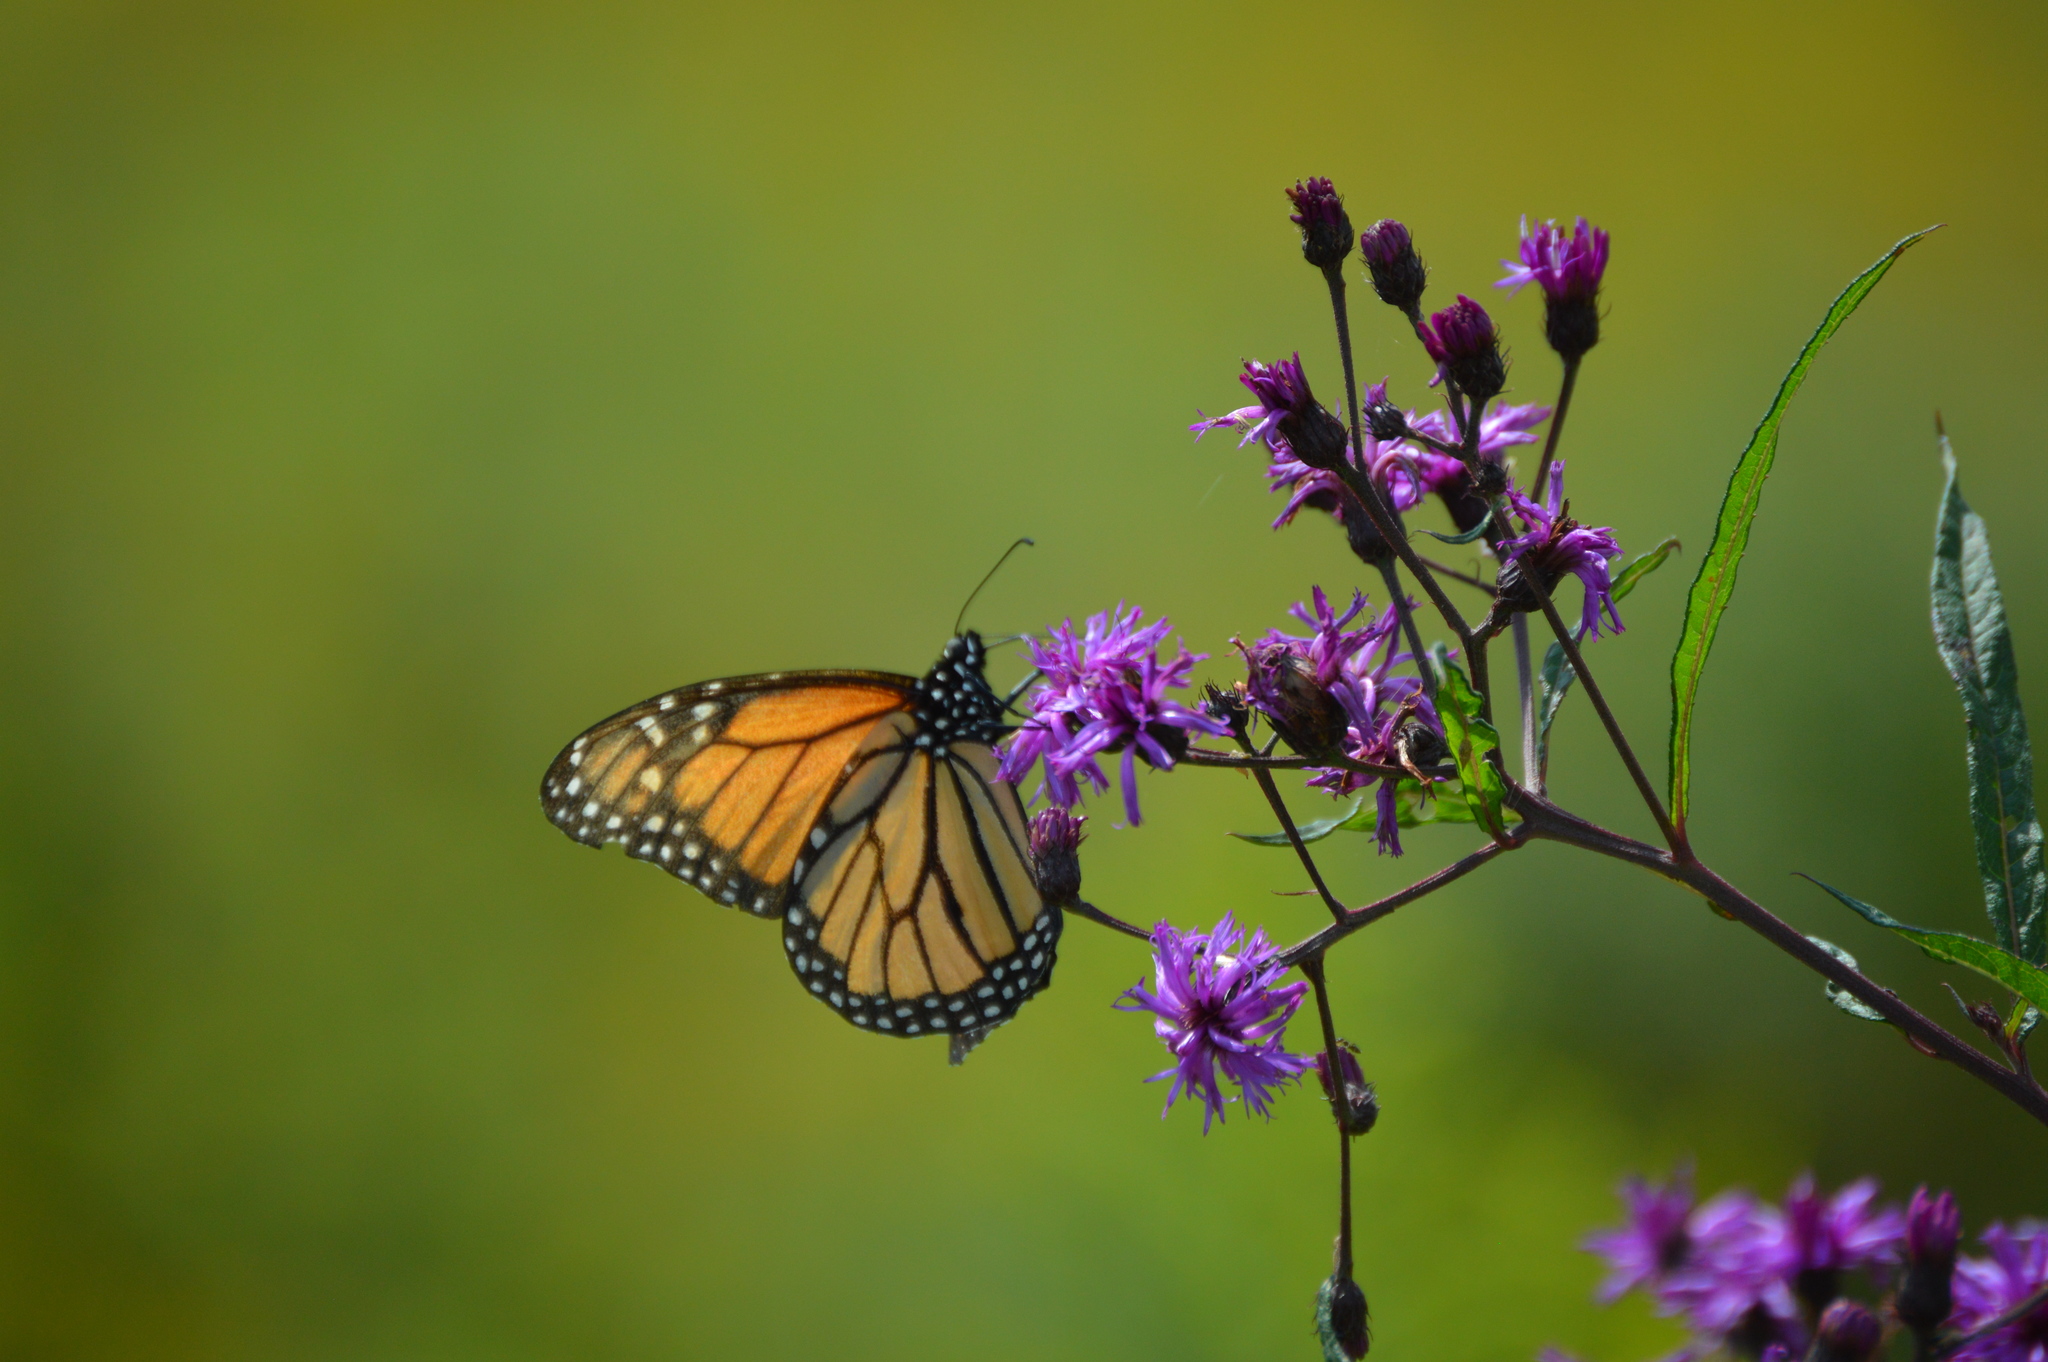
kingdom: Animalia
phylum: Arthropoda
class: Insecta
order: Lepidoptera
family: Nymphalidae
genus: Danaus
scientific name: Danaus plexippus
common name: Monarch
